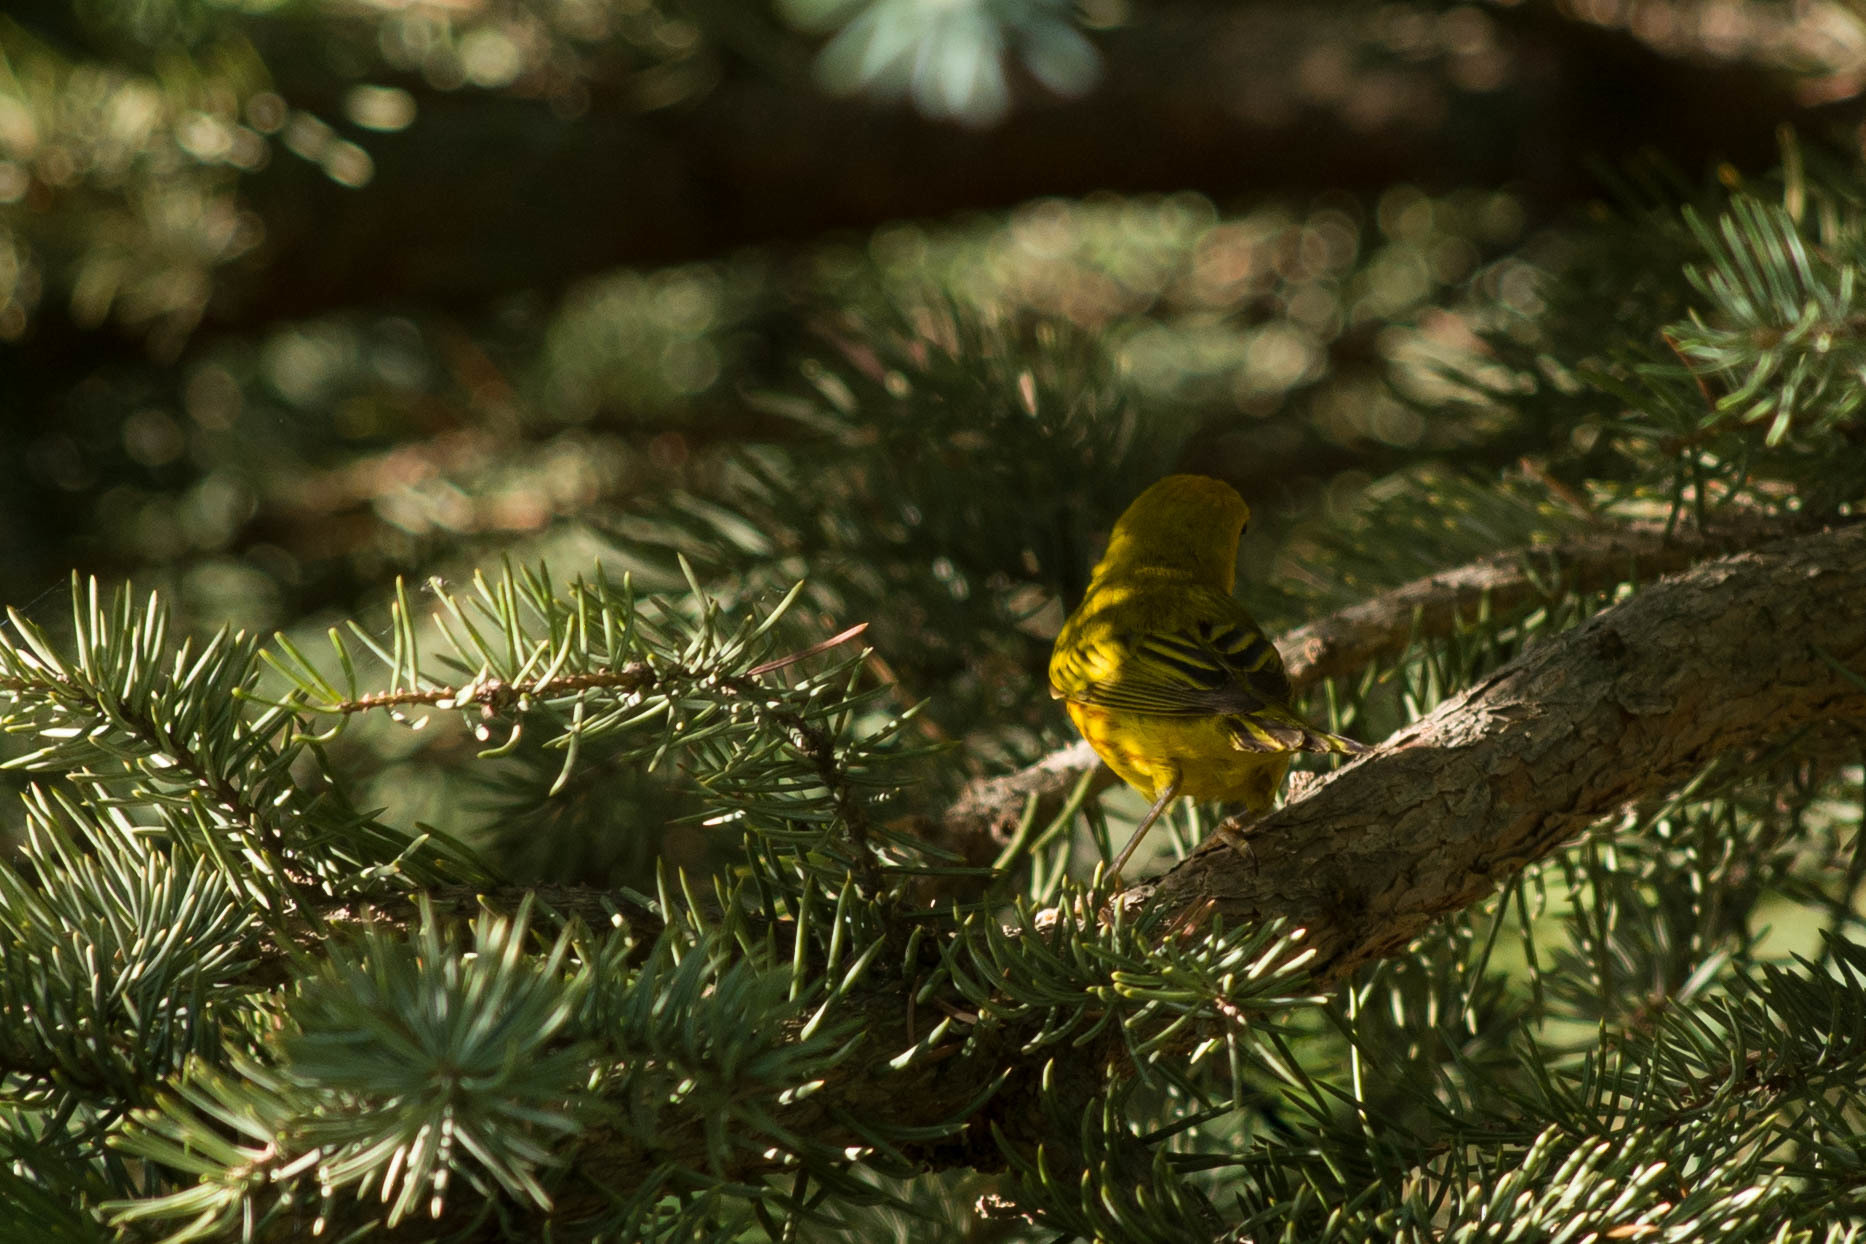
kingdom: Animalia
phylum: Chordata
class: Aves
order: Passeriformes
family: Parulidae
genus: Setophaga
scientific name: Setophaga petechia
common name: Yellow warbler
